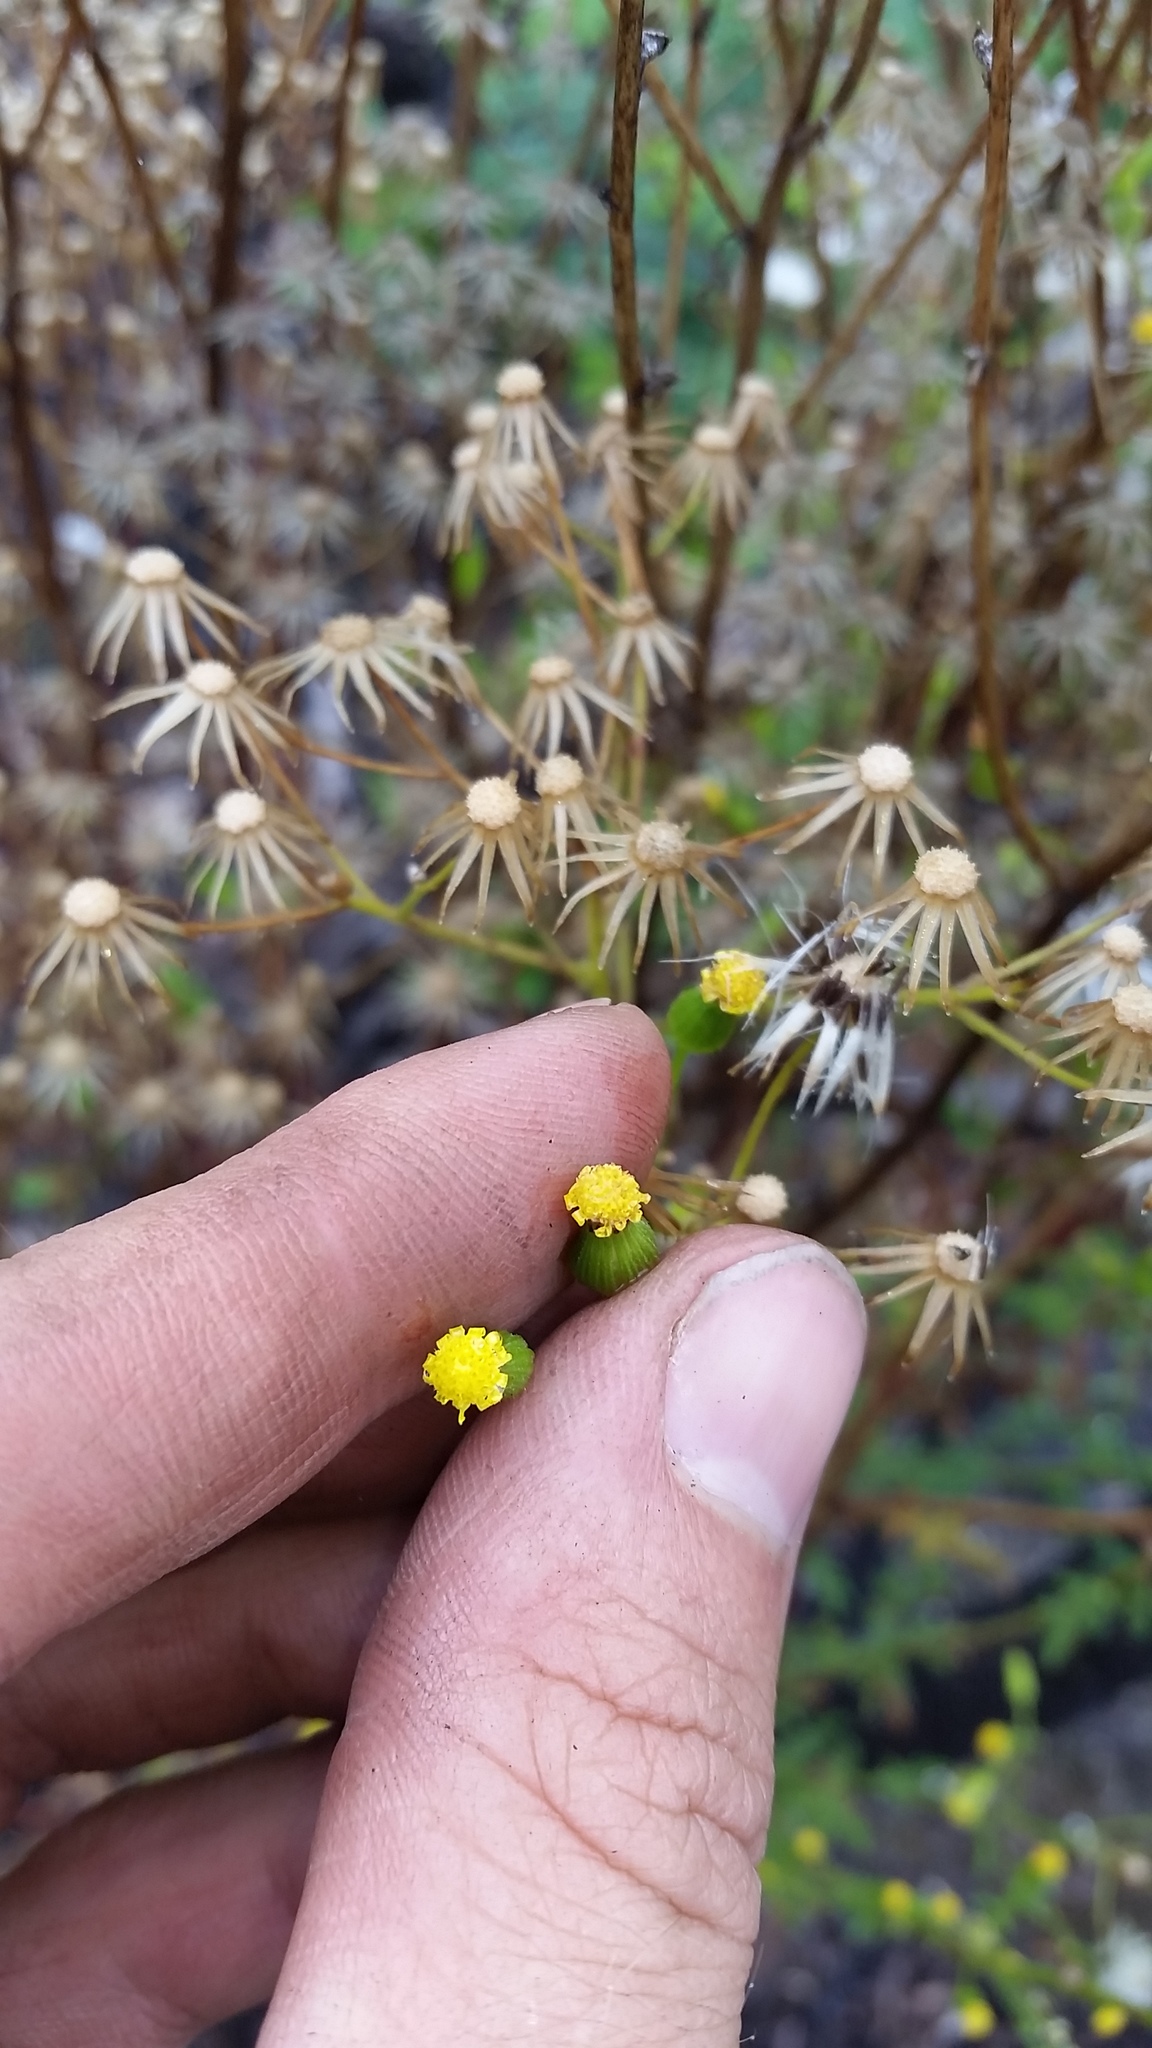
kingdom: Plantae
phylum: Tracheophyta
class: Magnoliopsida
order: Asterales
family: Asteraceae
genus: Senecio
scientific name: Senecio sylvaticus
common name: Woodland ragwort
